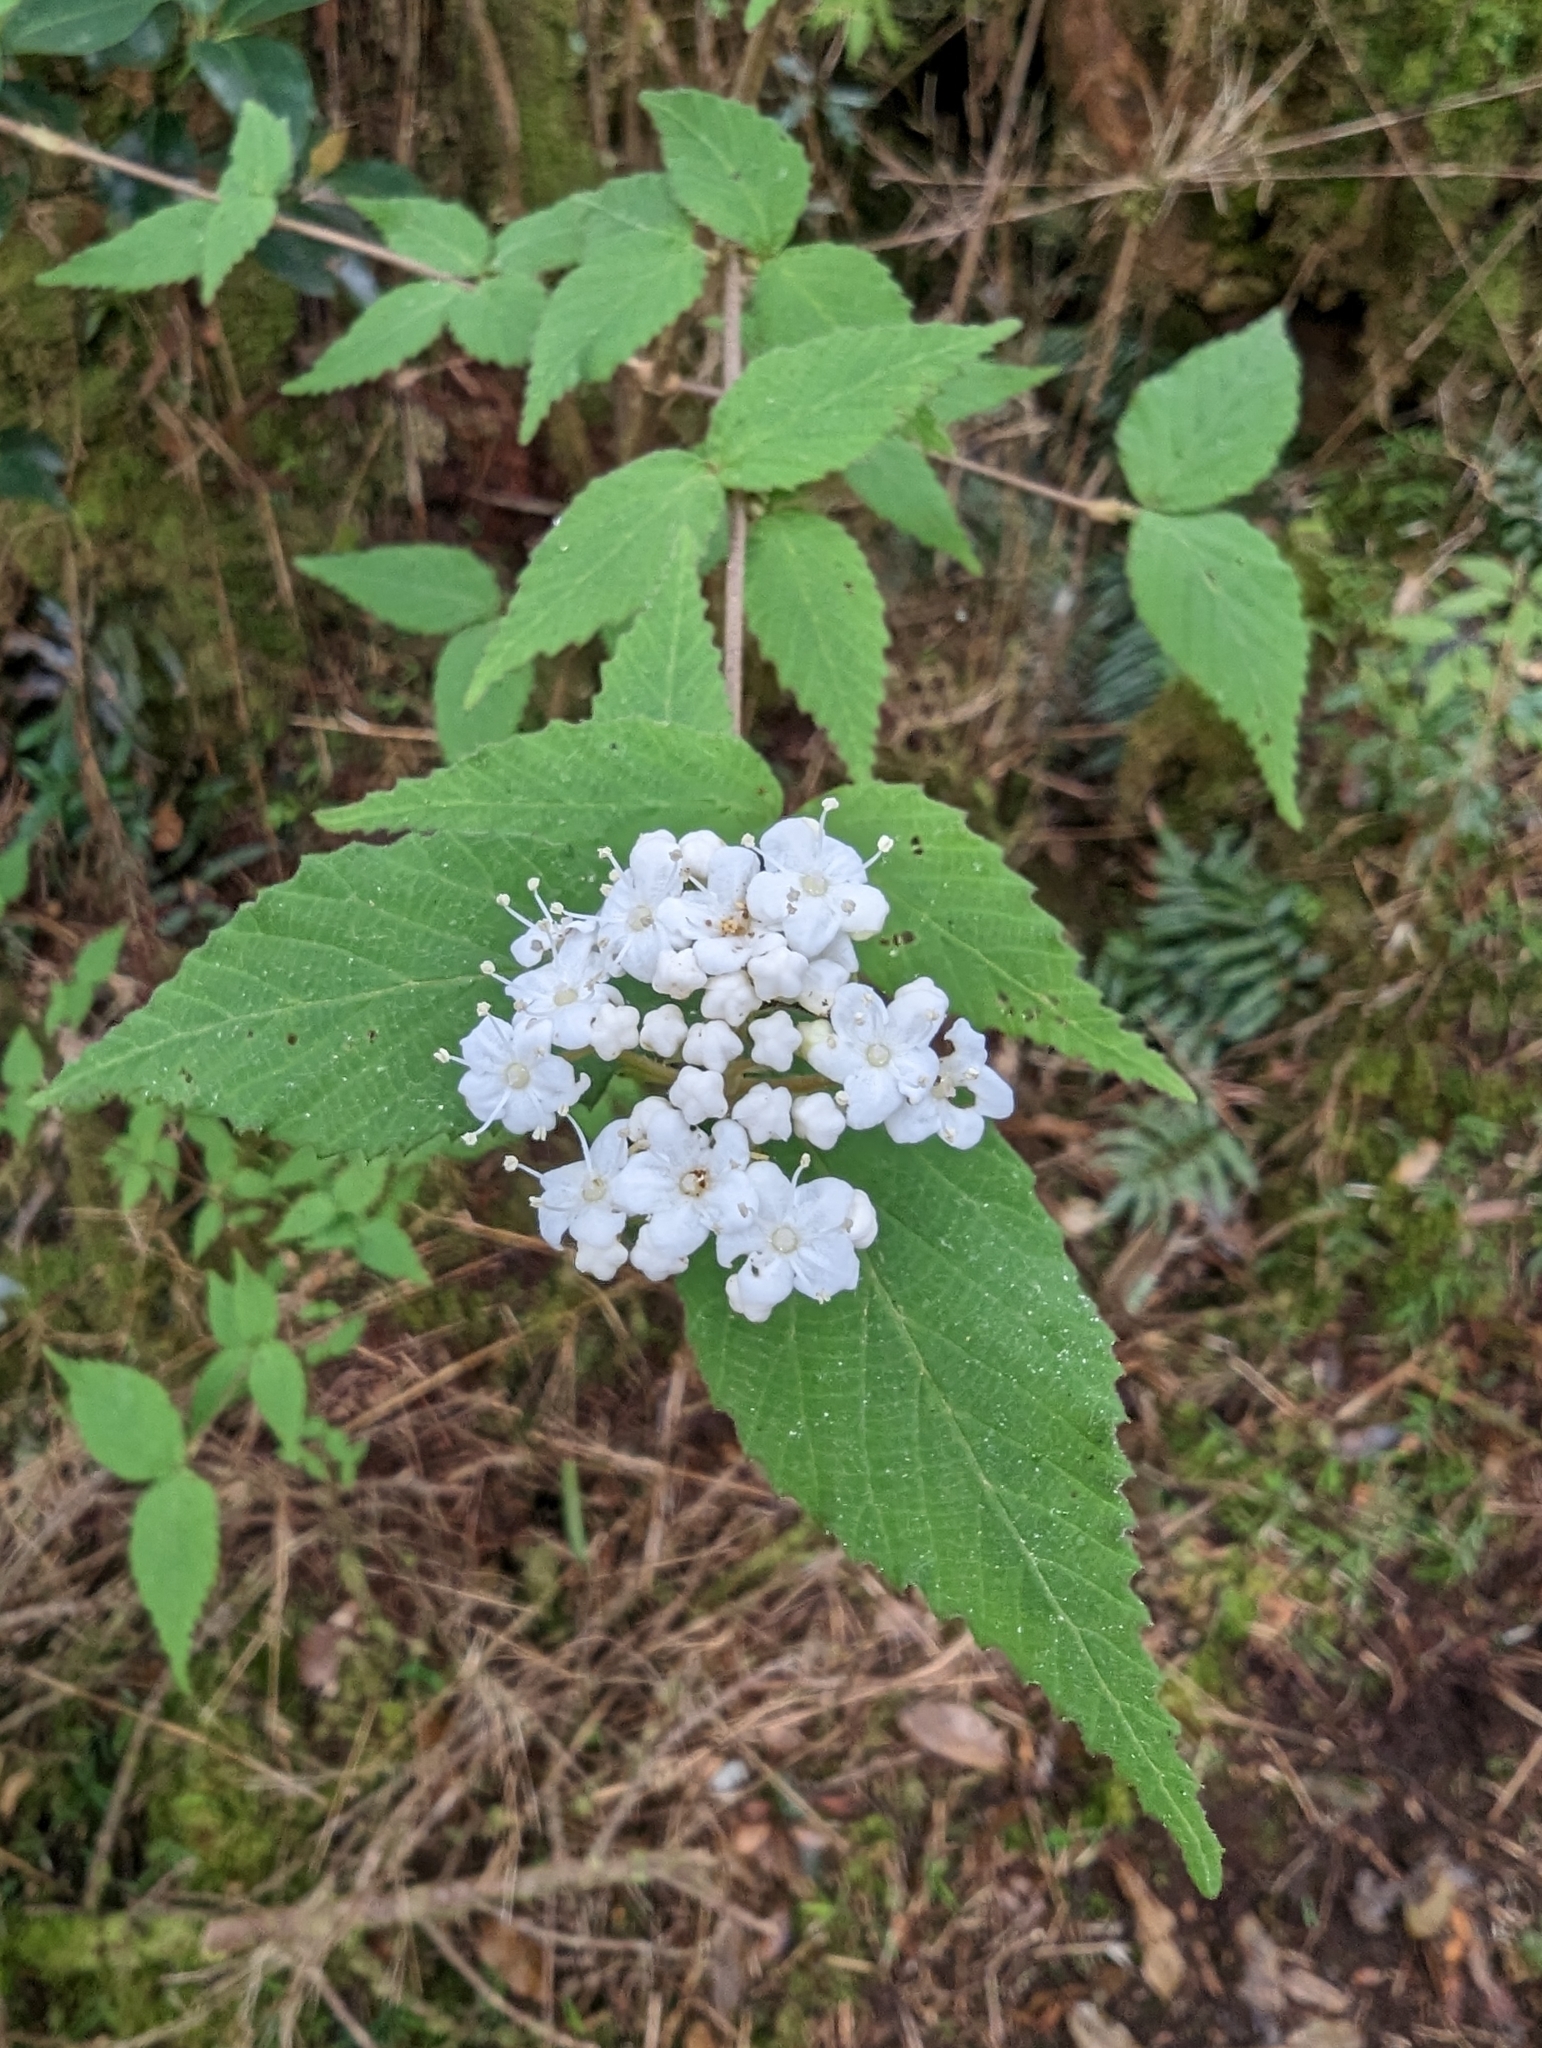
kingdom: Plantae
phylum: Tracheophyta
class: Magnoliopsida
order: Dipsacales
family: Viburnaceae
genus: Viburnum
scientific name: Viburnum erosum
